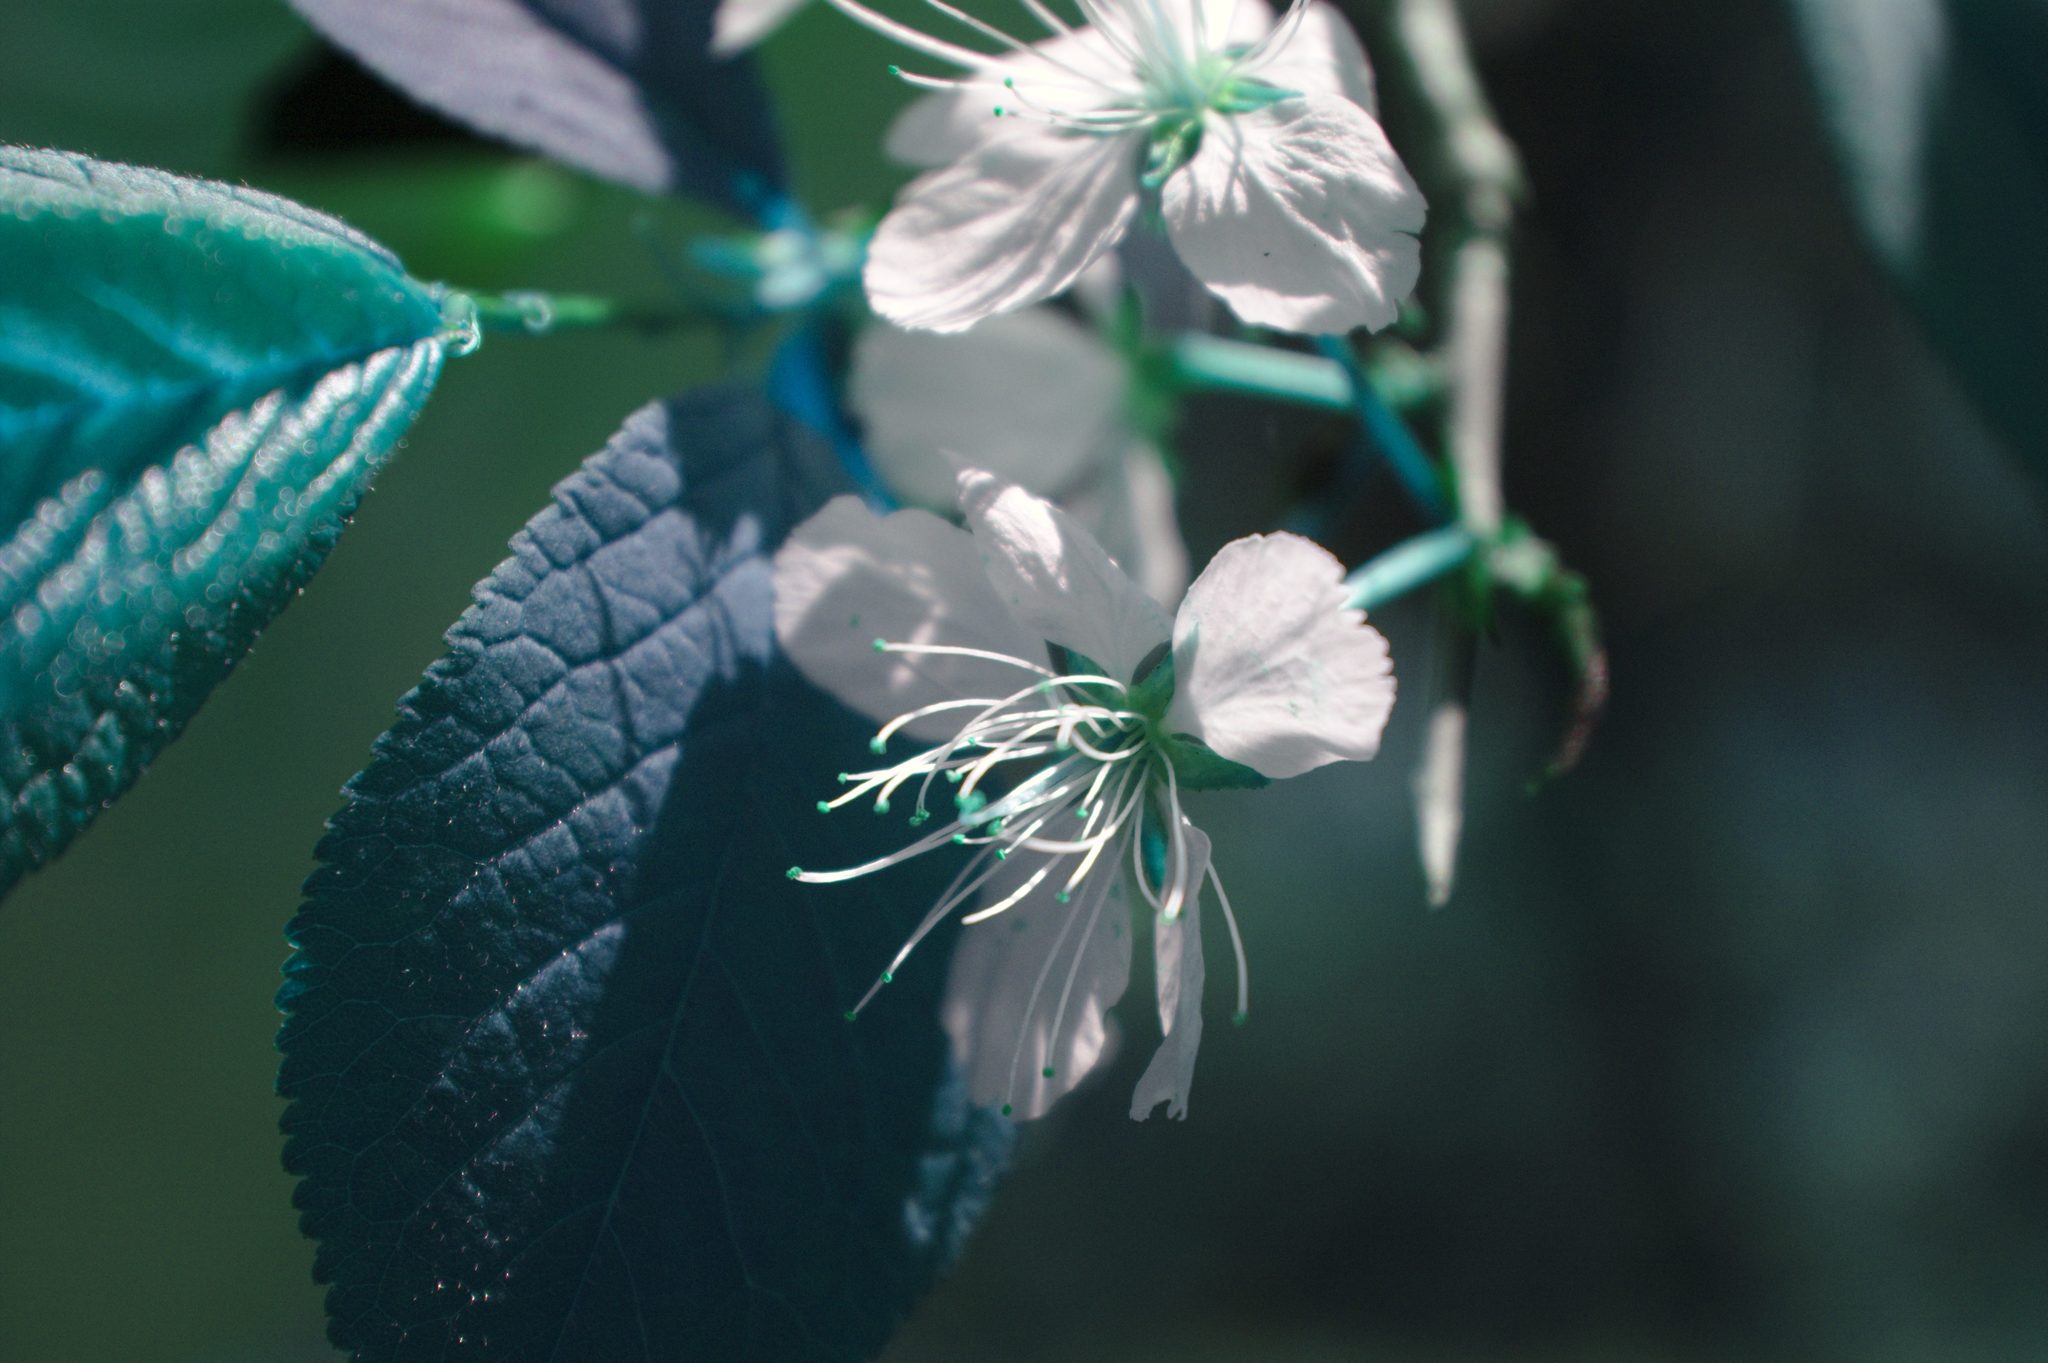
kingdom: Plantae
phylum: Tracheophyta
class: Magnoliopsida
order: Rosales
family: Rosaceae
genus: Prunus
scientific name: Prunus nigra
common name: Black plum
